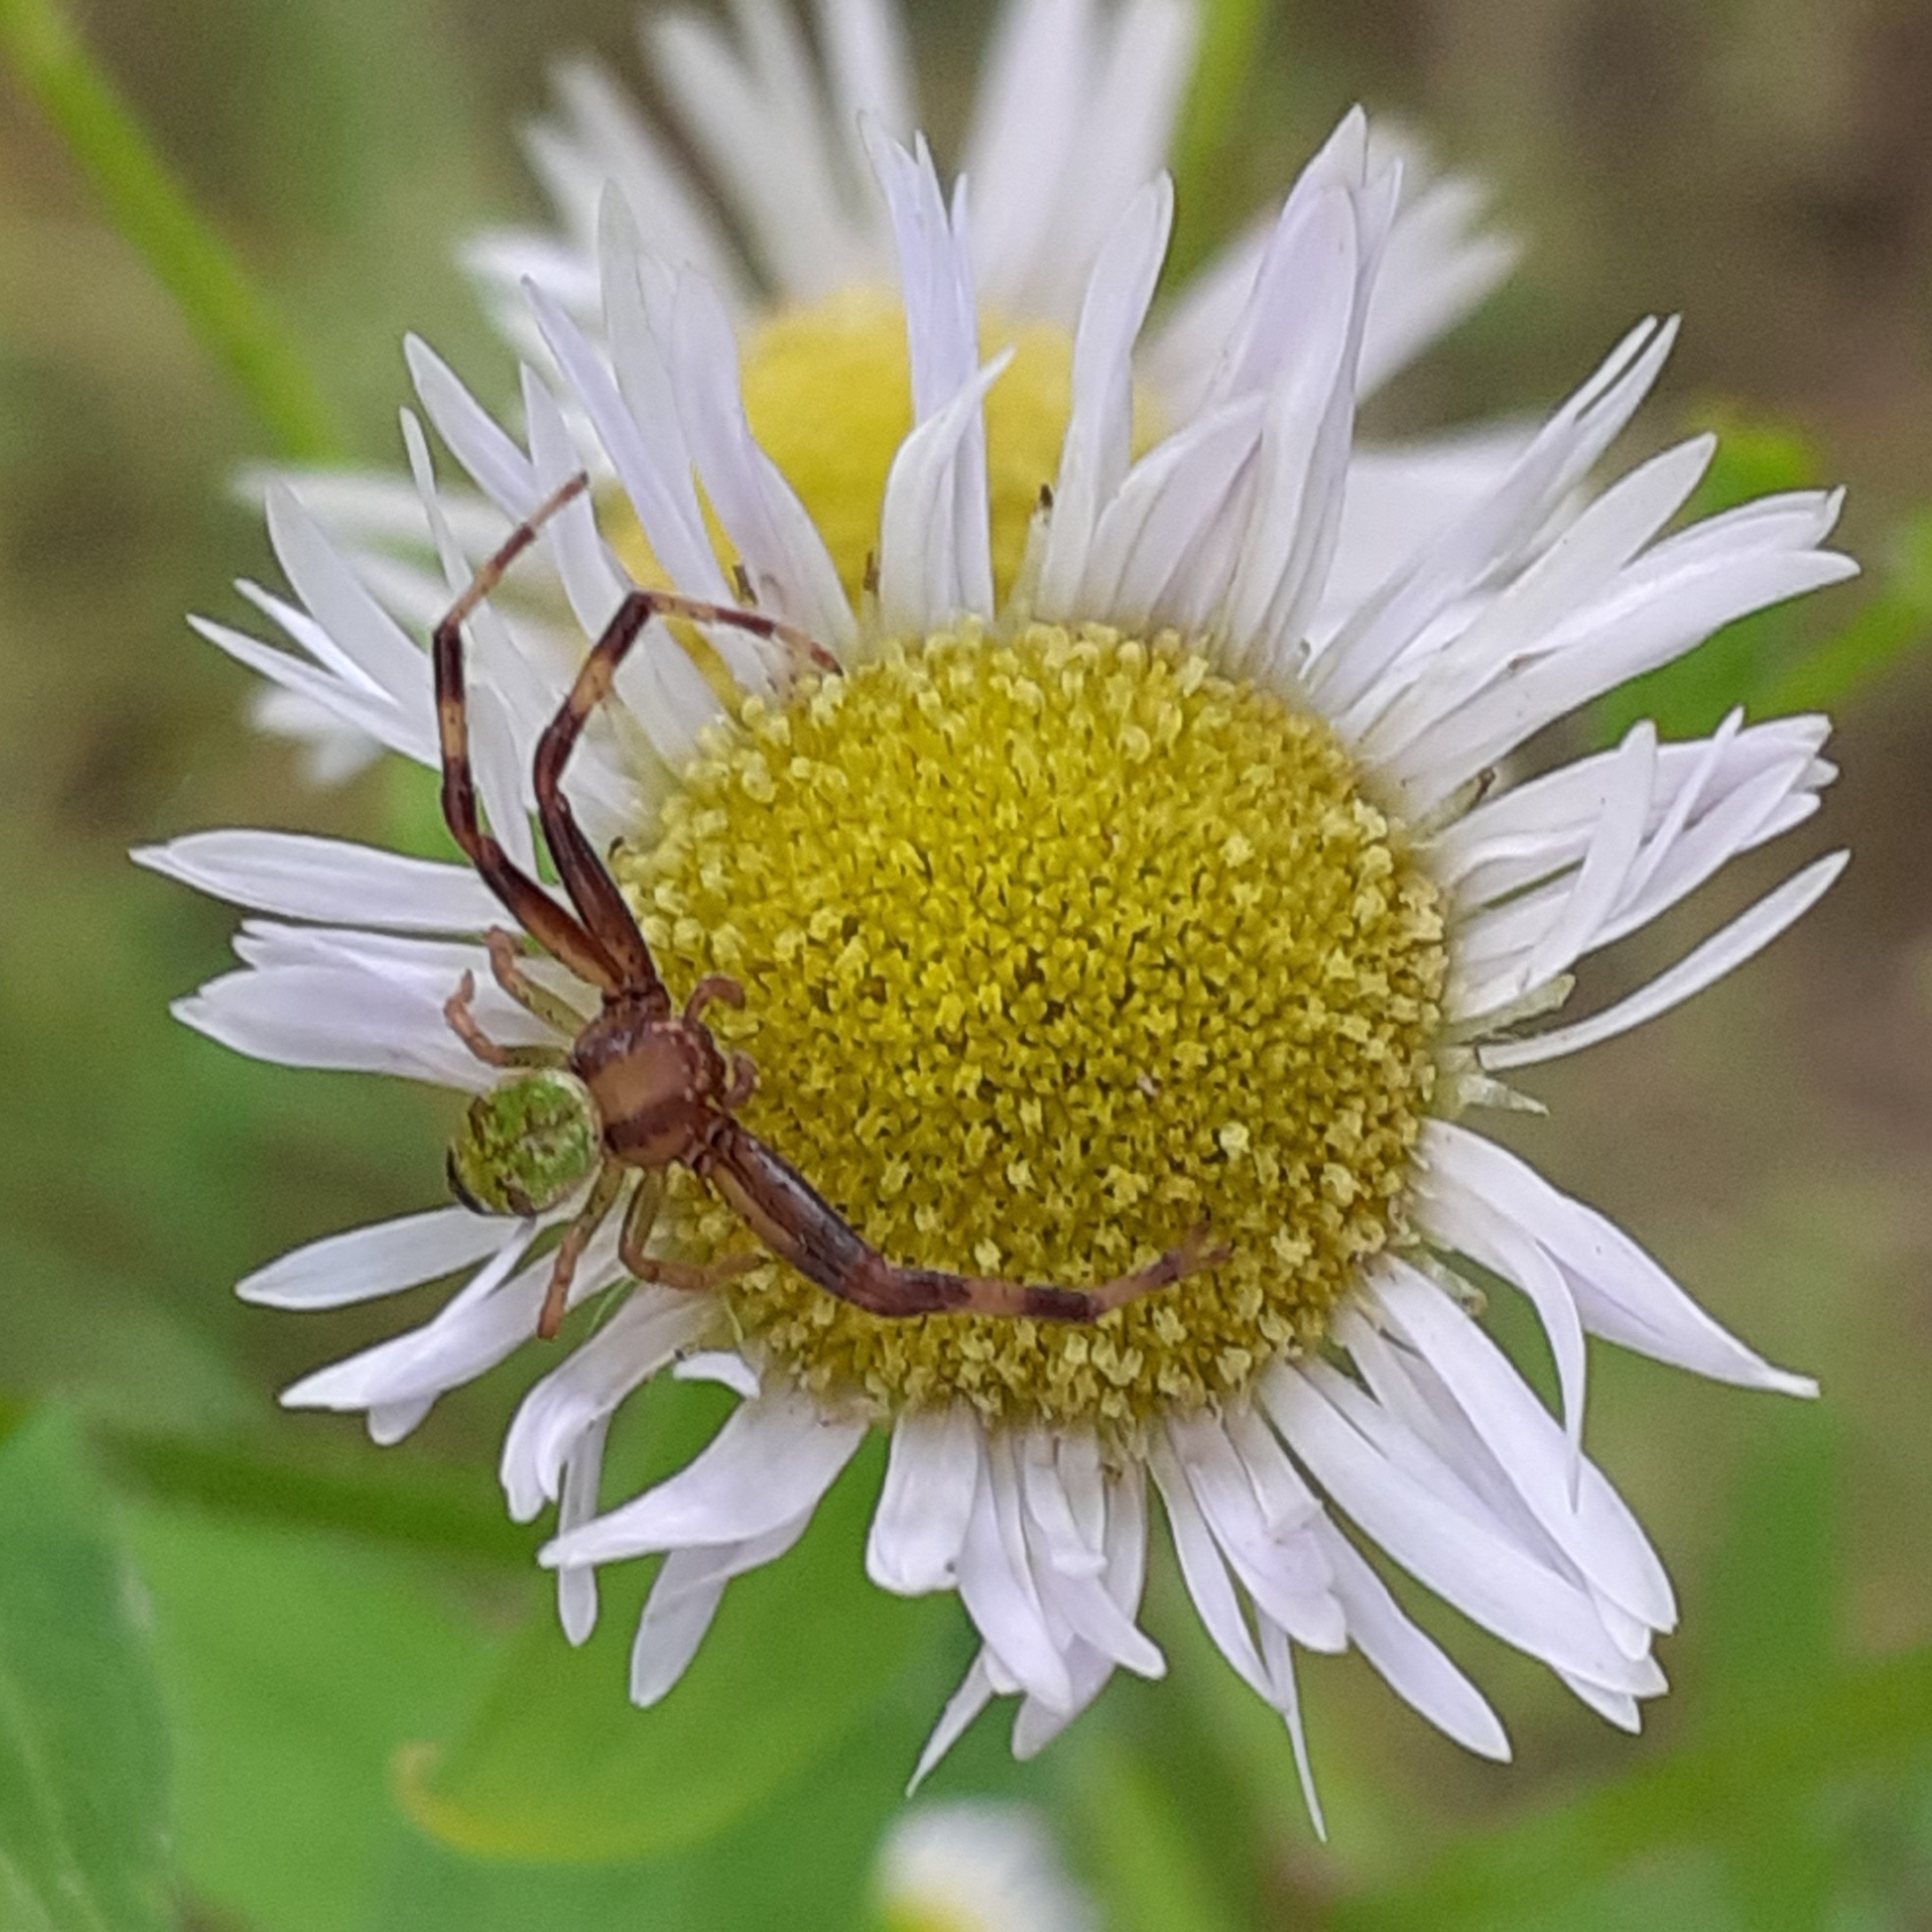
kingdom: Animalia
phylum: Arthropoda
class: Arachnida
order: Araneae
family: Thomisidae
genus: Ebrechtella
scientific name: Ebrechtella tricuspidata
